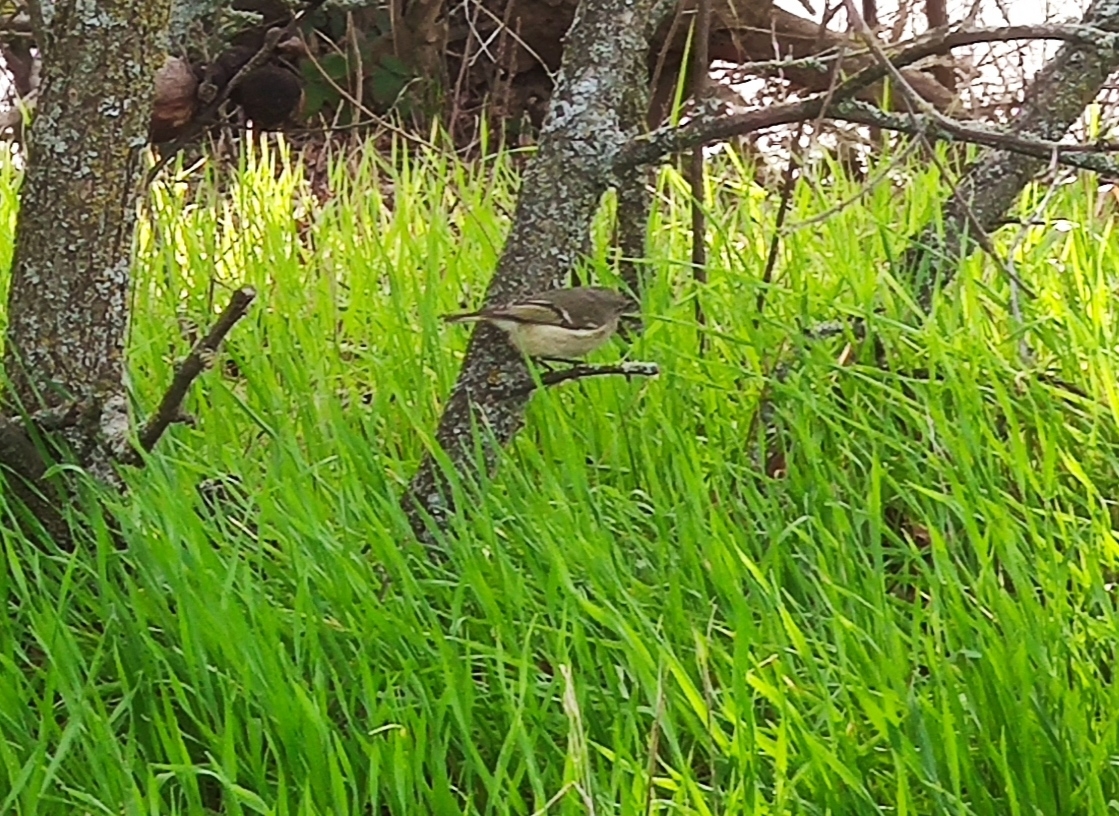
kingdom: Animalia
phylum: Chordata
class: Aves
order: Passeriformes
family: Regulidae
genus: Regulus
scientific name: Regulus calendula
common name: Ruby-crowned kinglet
